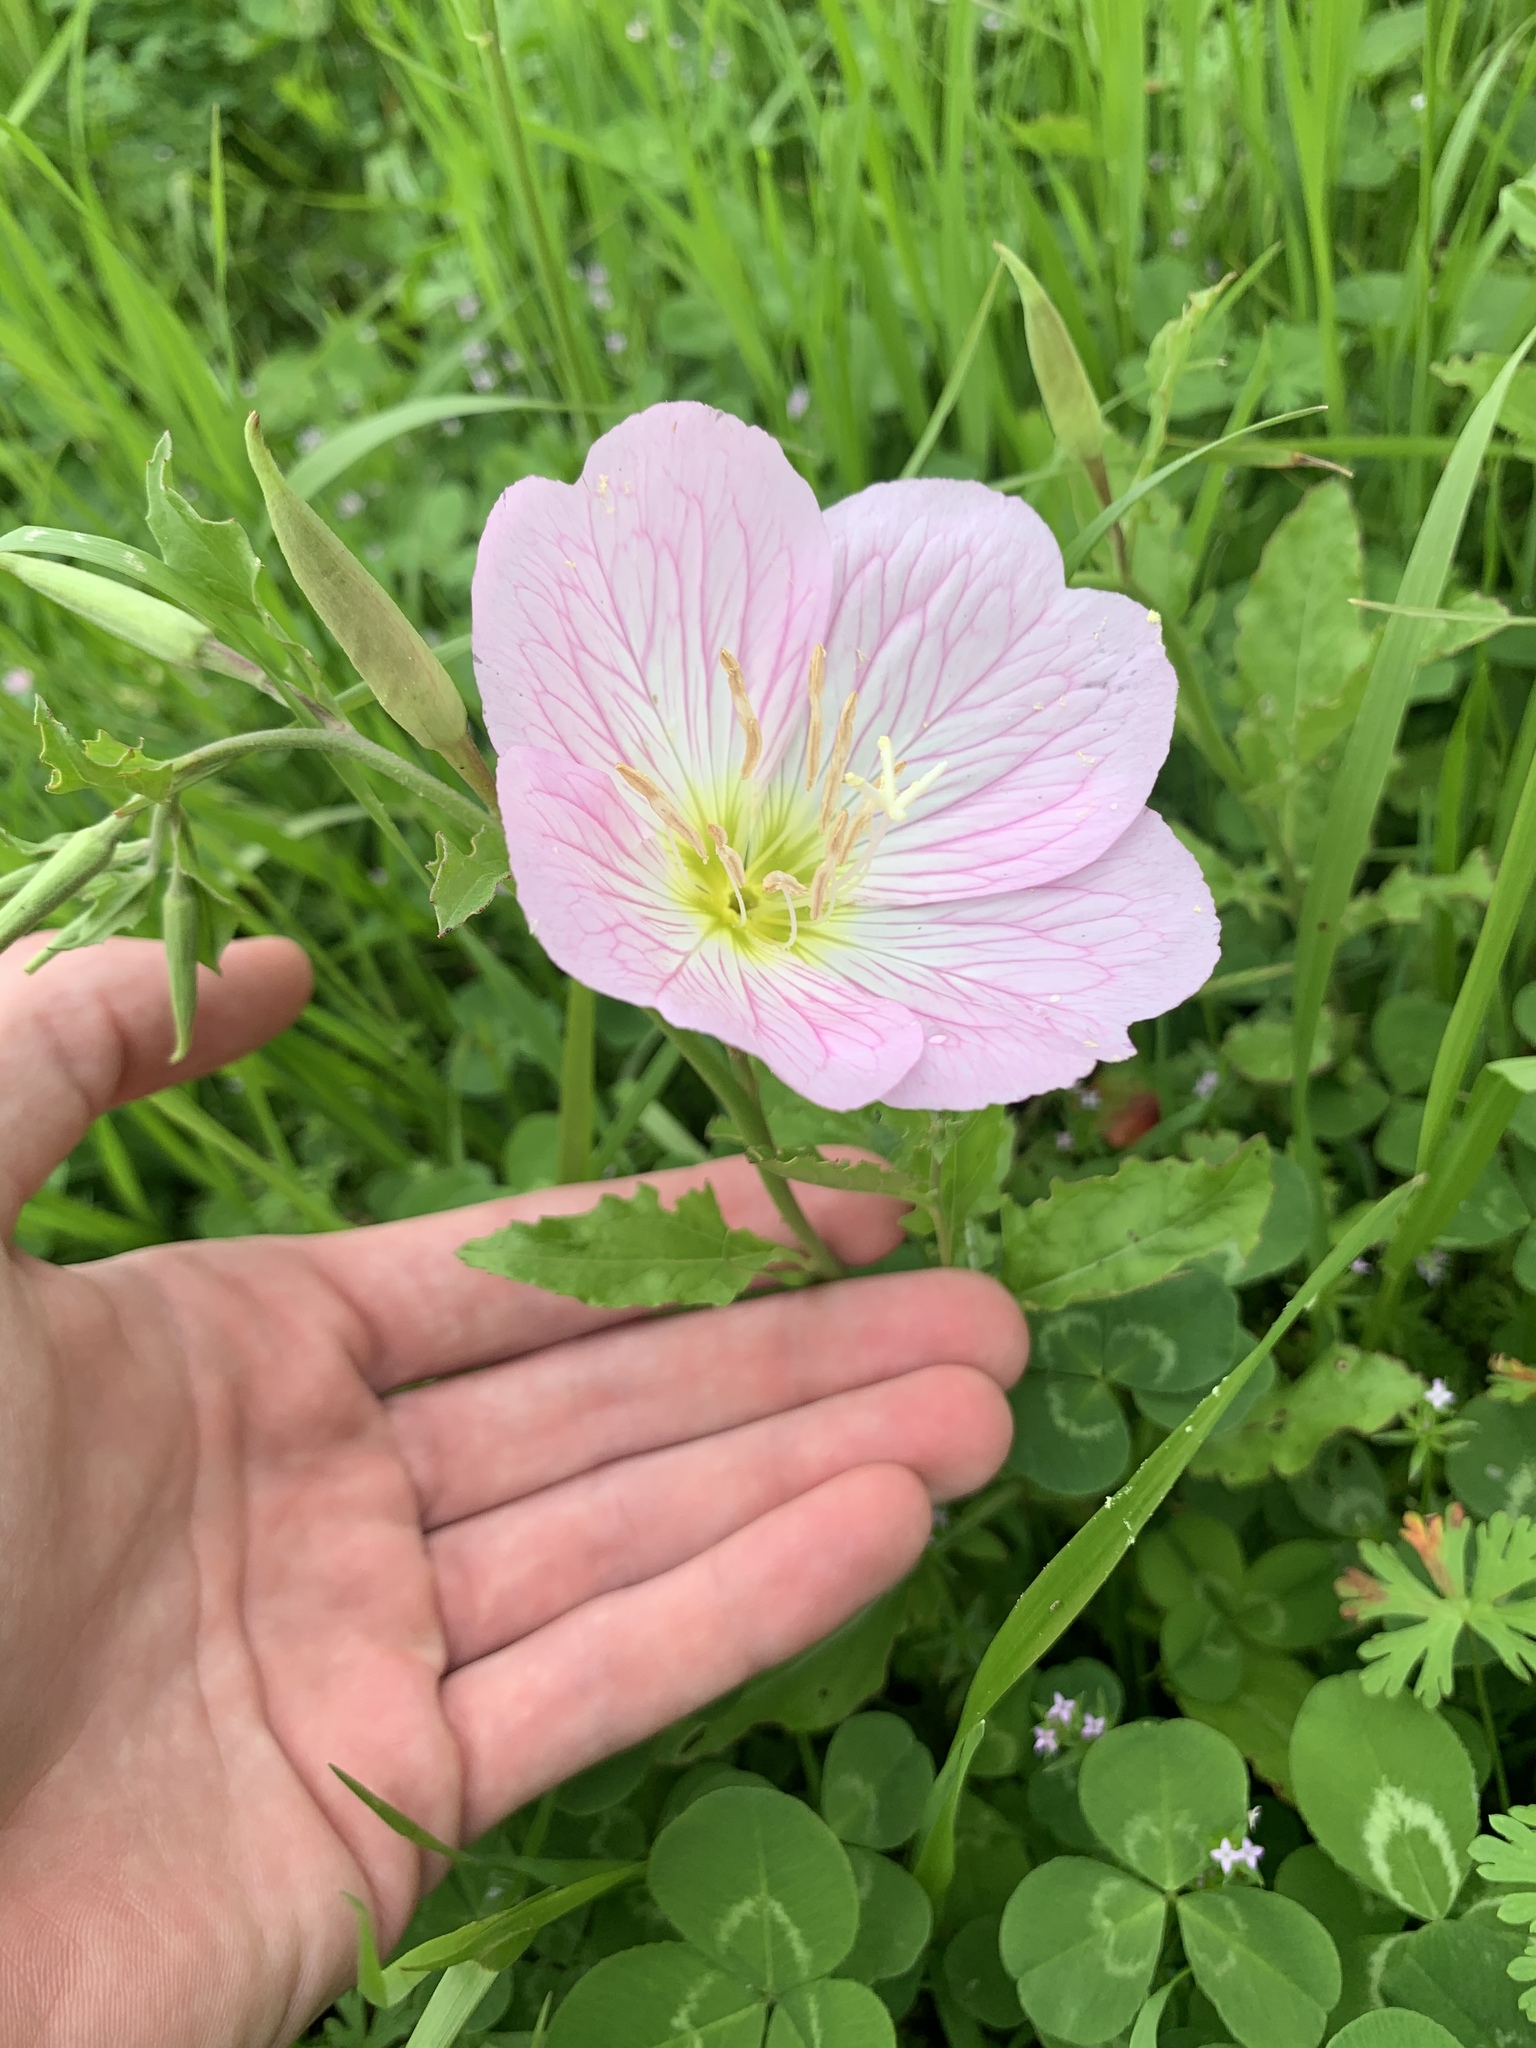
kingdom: Plantae
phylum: Tracheophyta
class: Magnoliopsida
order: Myrtales
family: Onagraceae
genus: Oenothera
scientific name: Oenothera speciosa
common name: White evening-primrose
